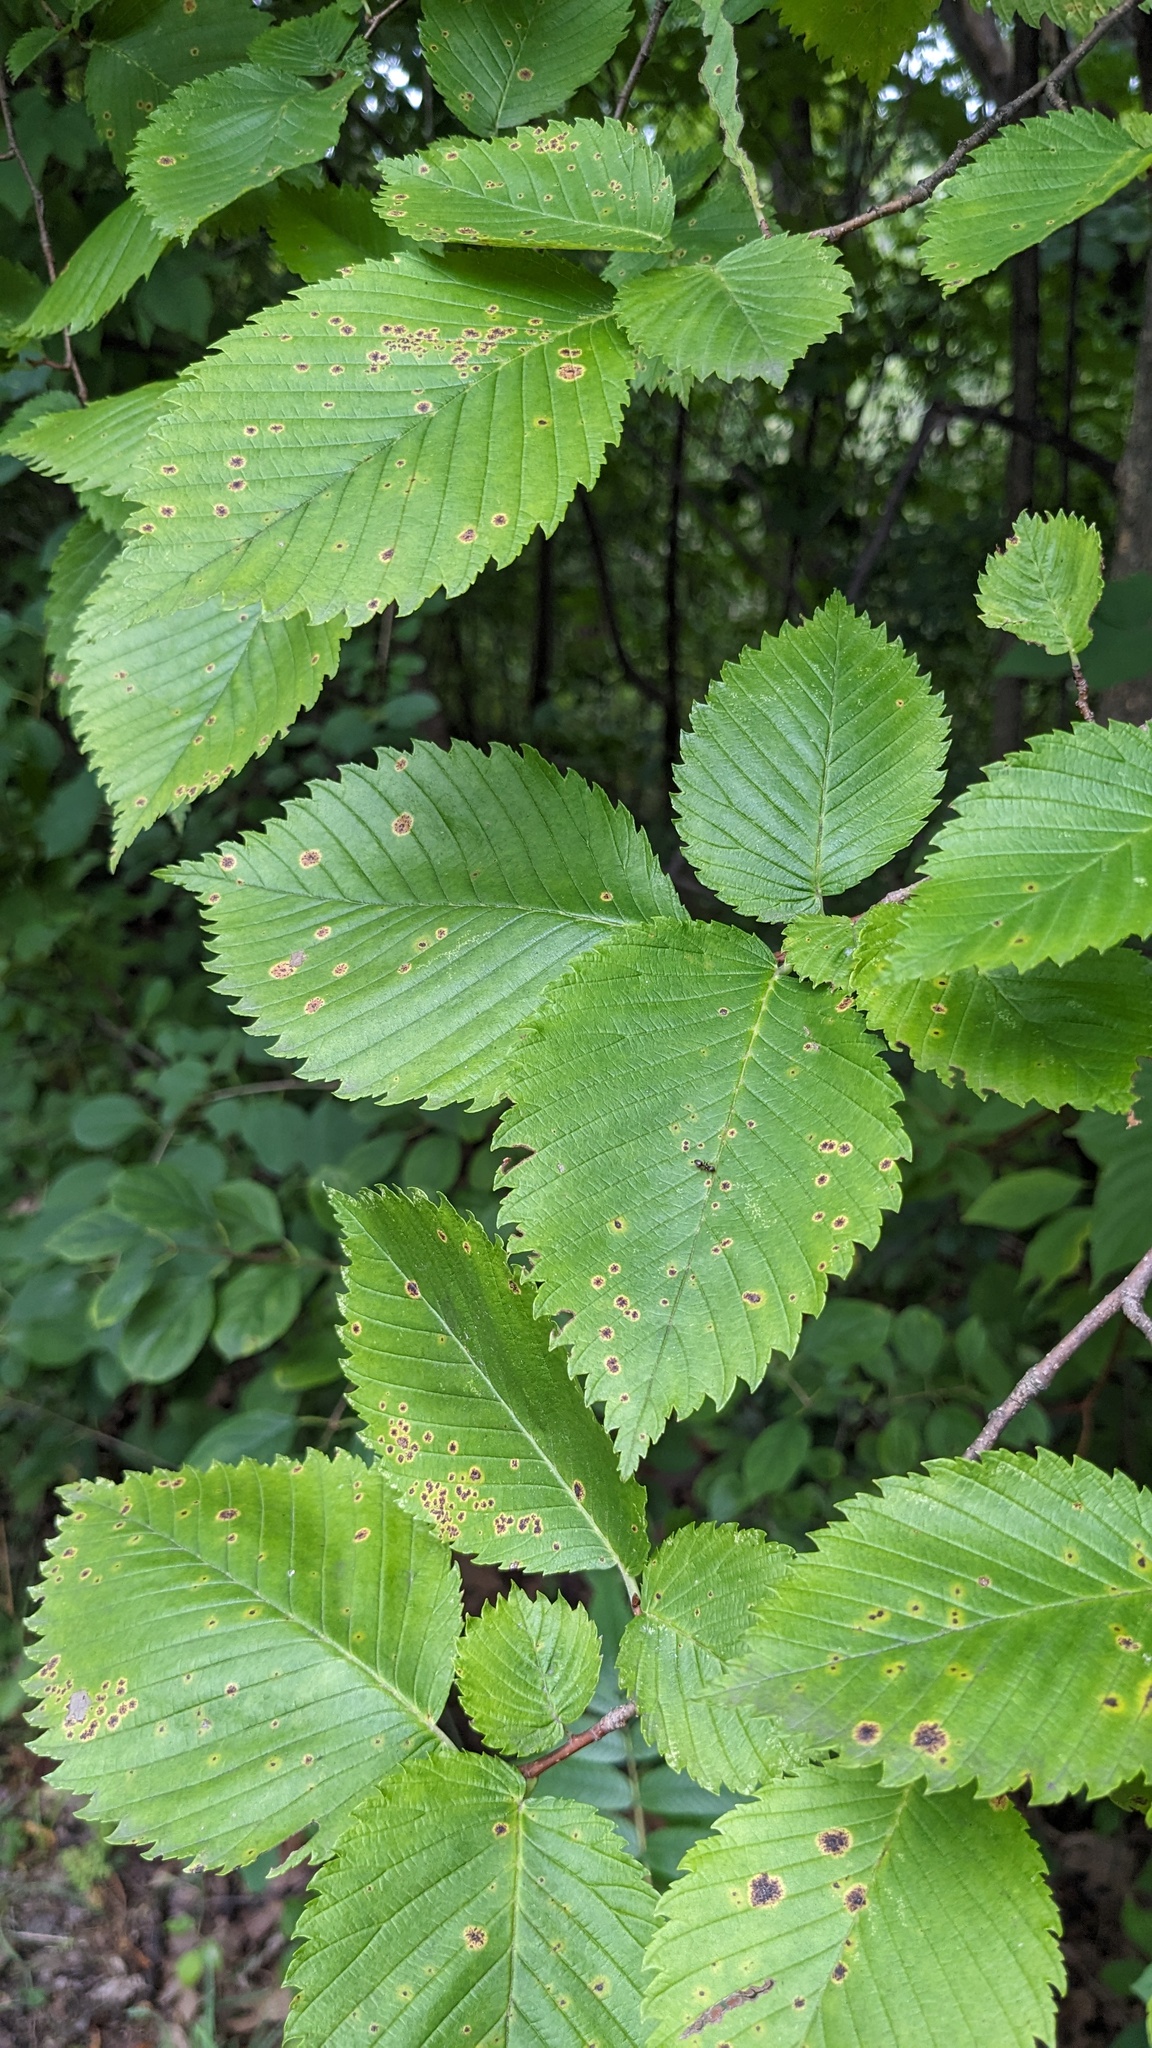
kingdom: Plantae
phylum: Tracheophyta
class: Magnoliopsida
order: Rosales
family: Ulmaceae
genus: Ulmus
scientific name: Ulmus americana
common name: American elm
